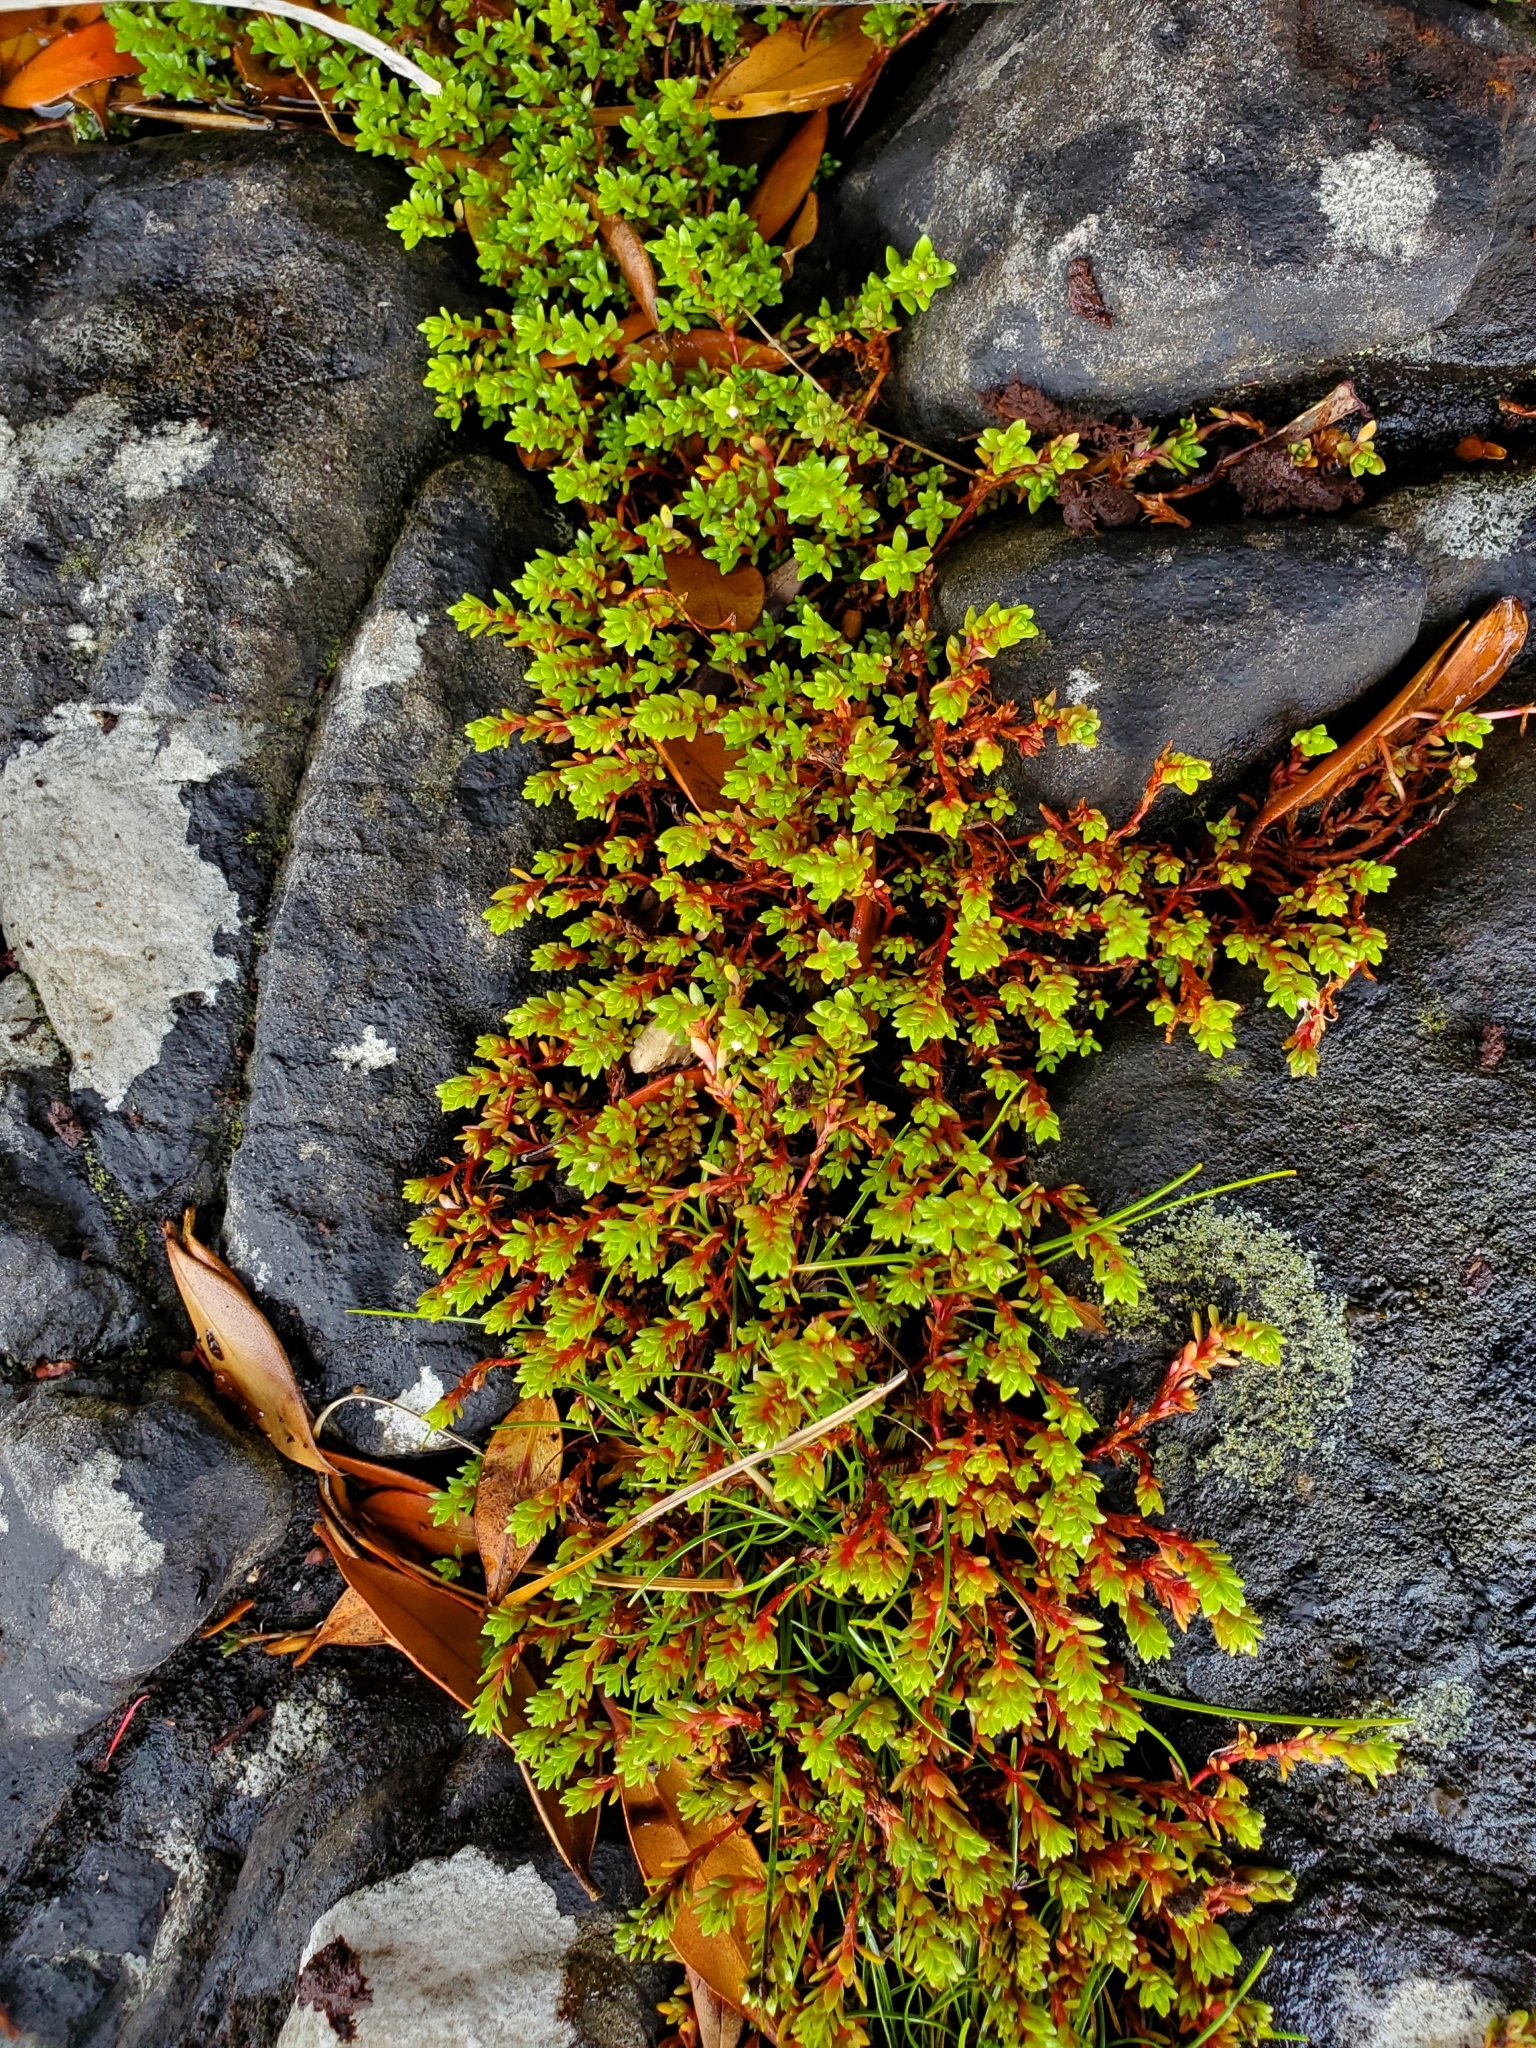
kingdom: Plantae
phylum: Tracheophyta
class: Magnoliopsida
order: Saxifragales
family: Crassulaceae
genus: Crassula
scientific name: Crassula moschata
